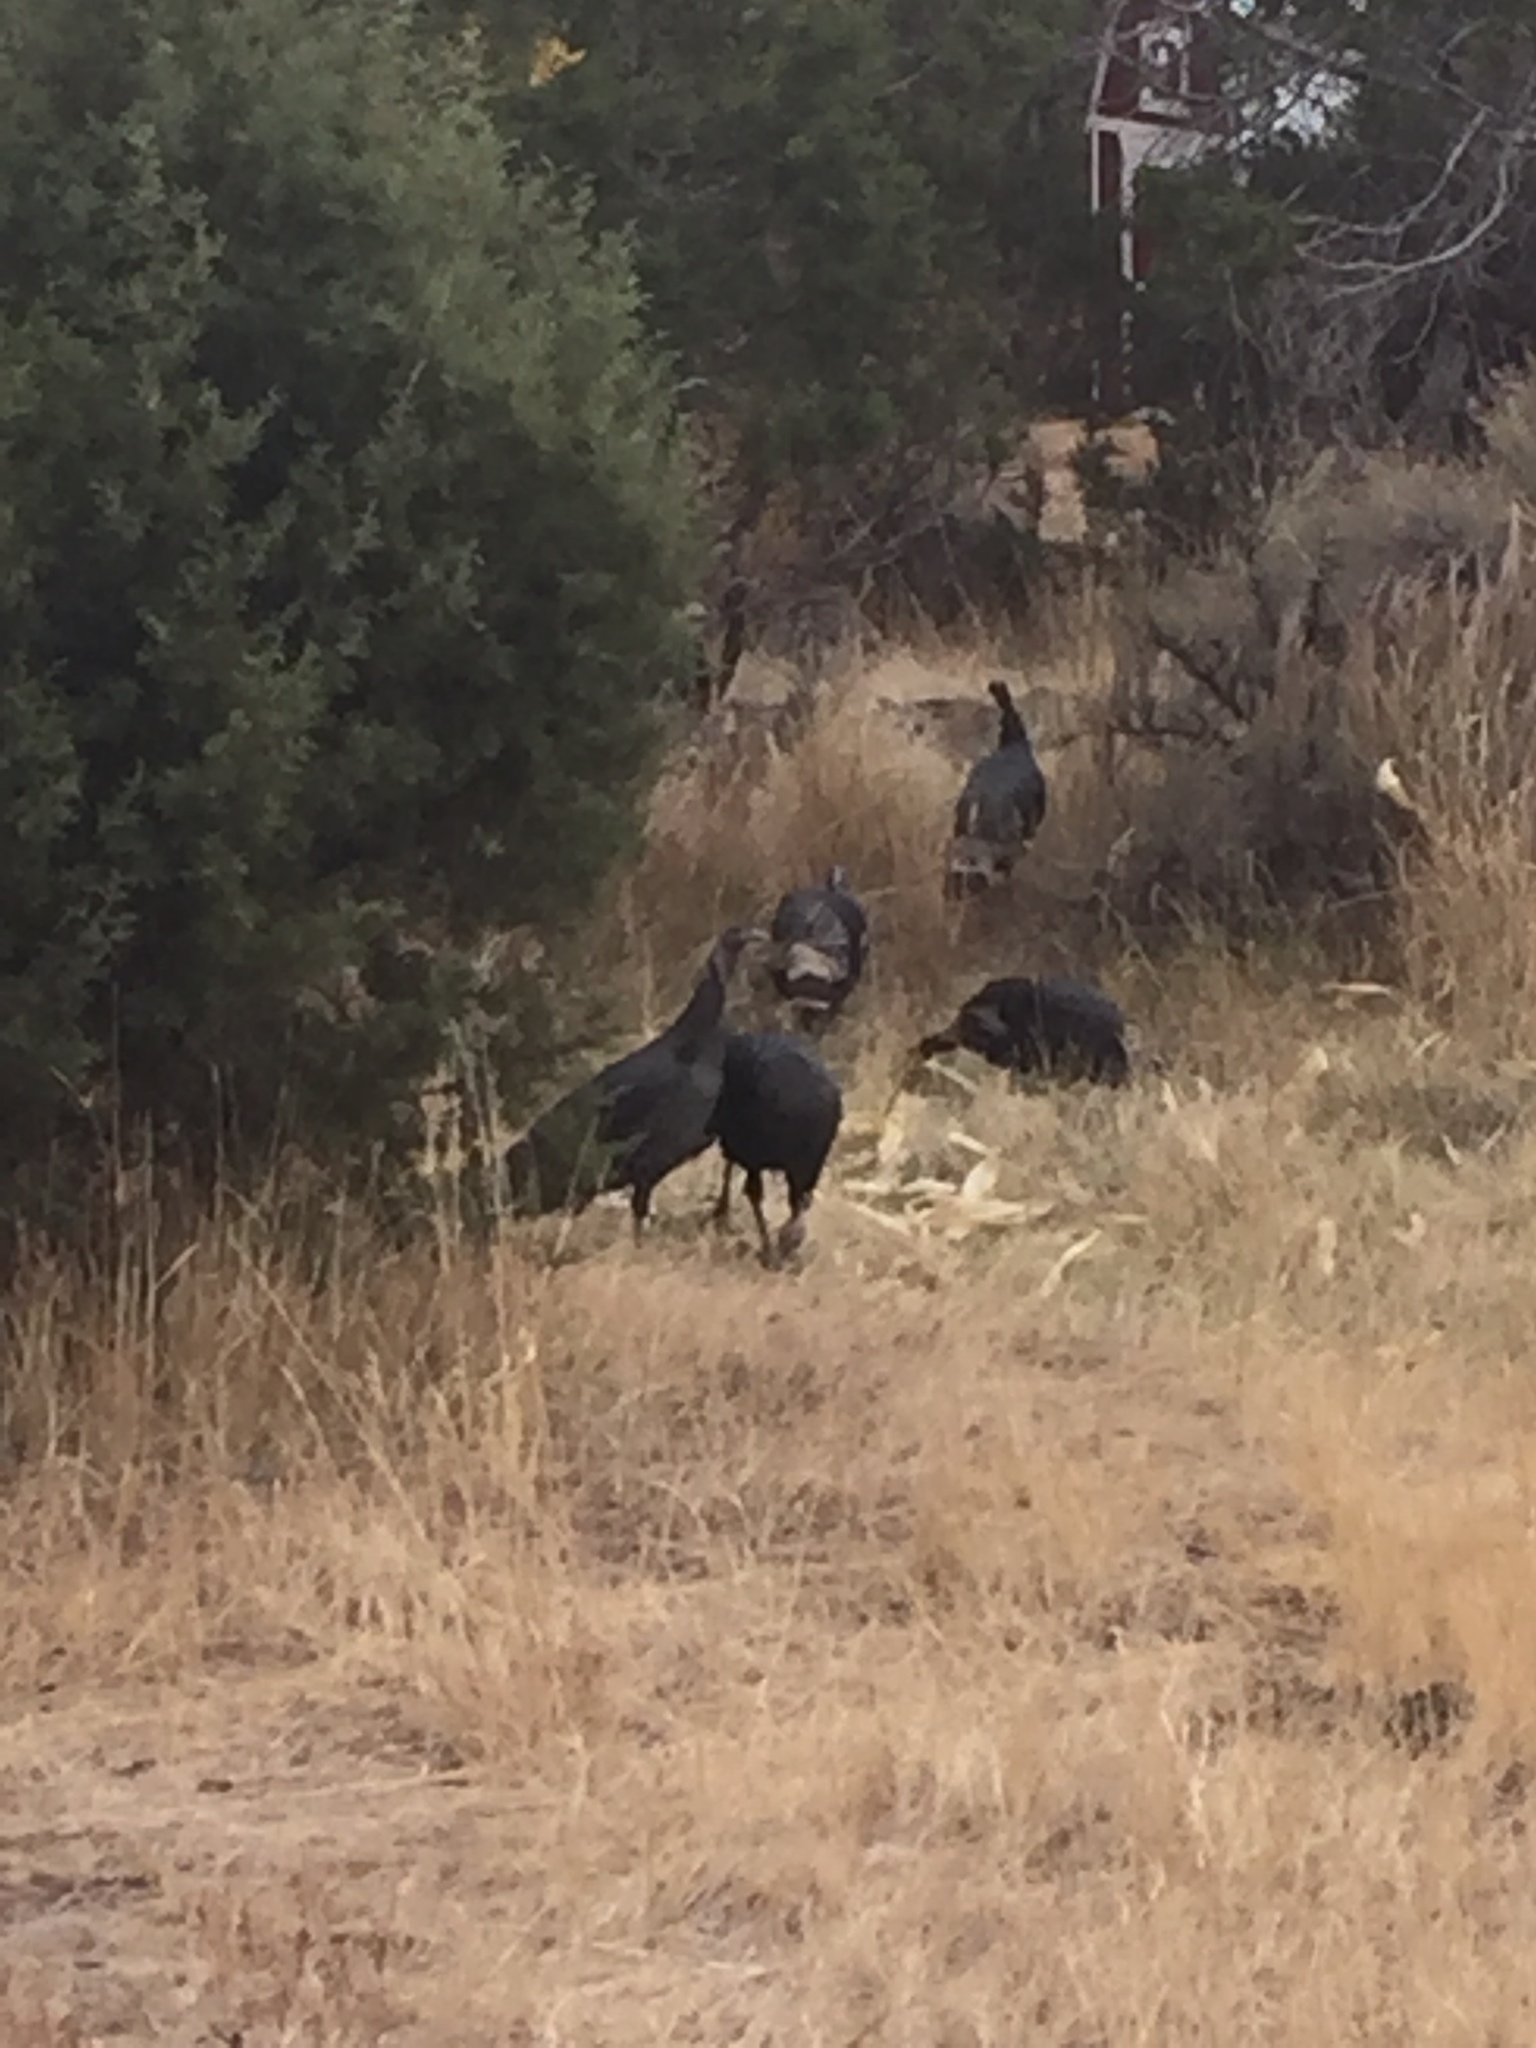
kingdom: Animalia
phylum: Chordata
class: Aves
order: Galliformes
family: Phasianidae
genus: Meleagris
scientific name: Meleagris gallopavo
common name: Wild turkey
